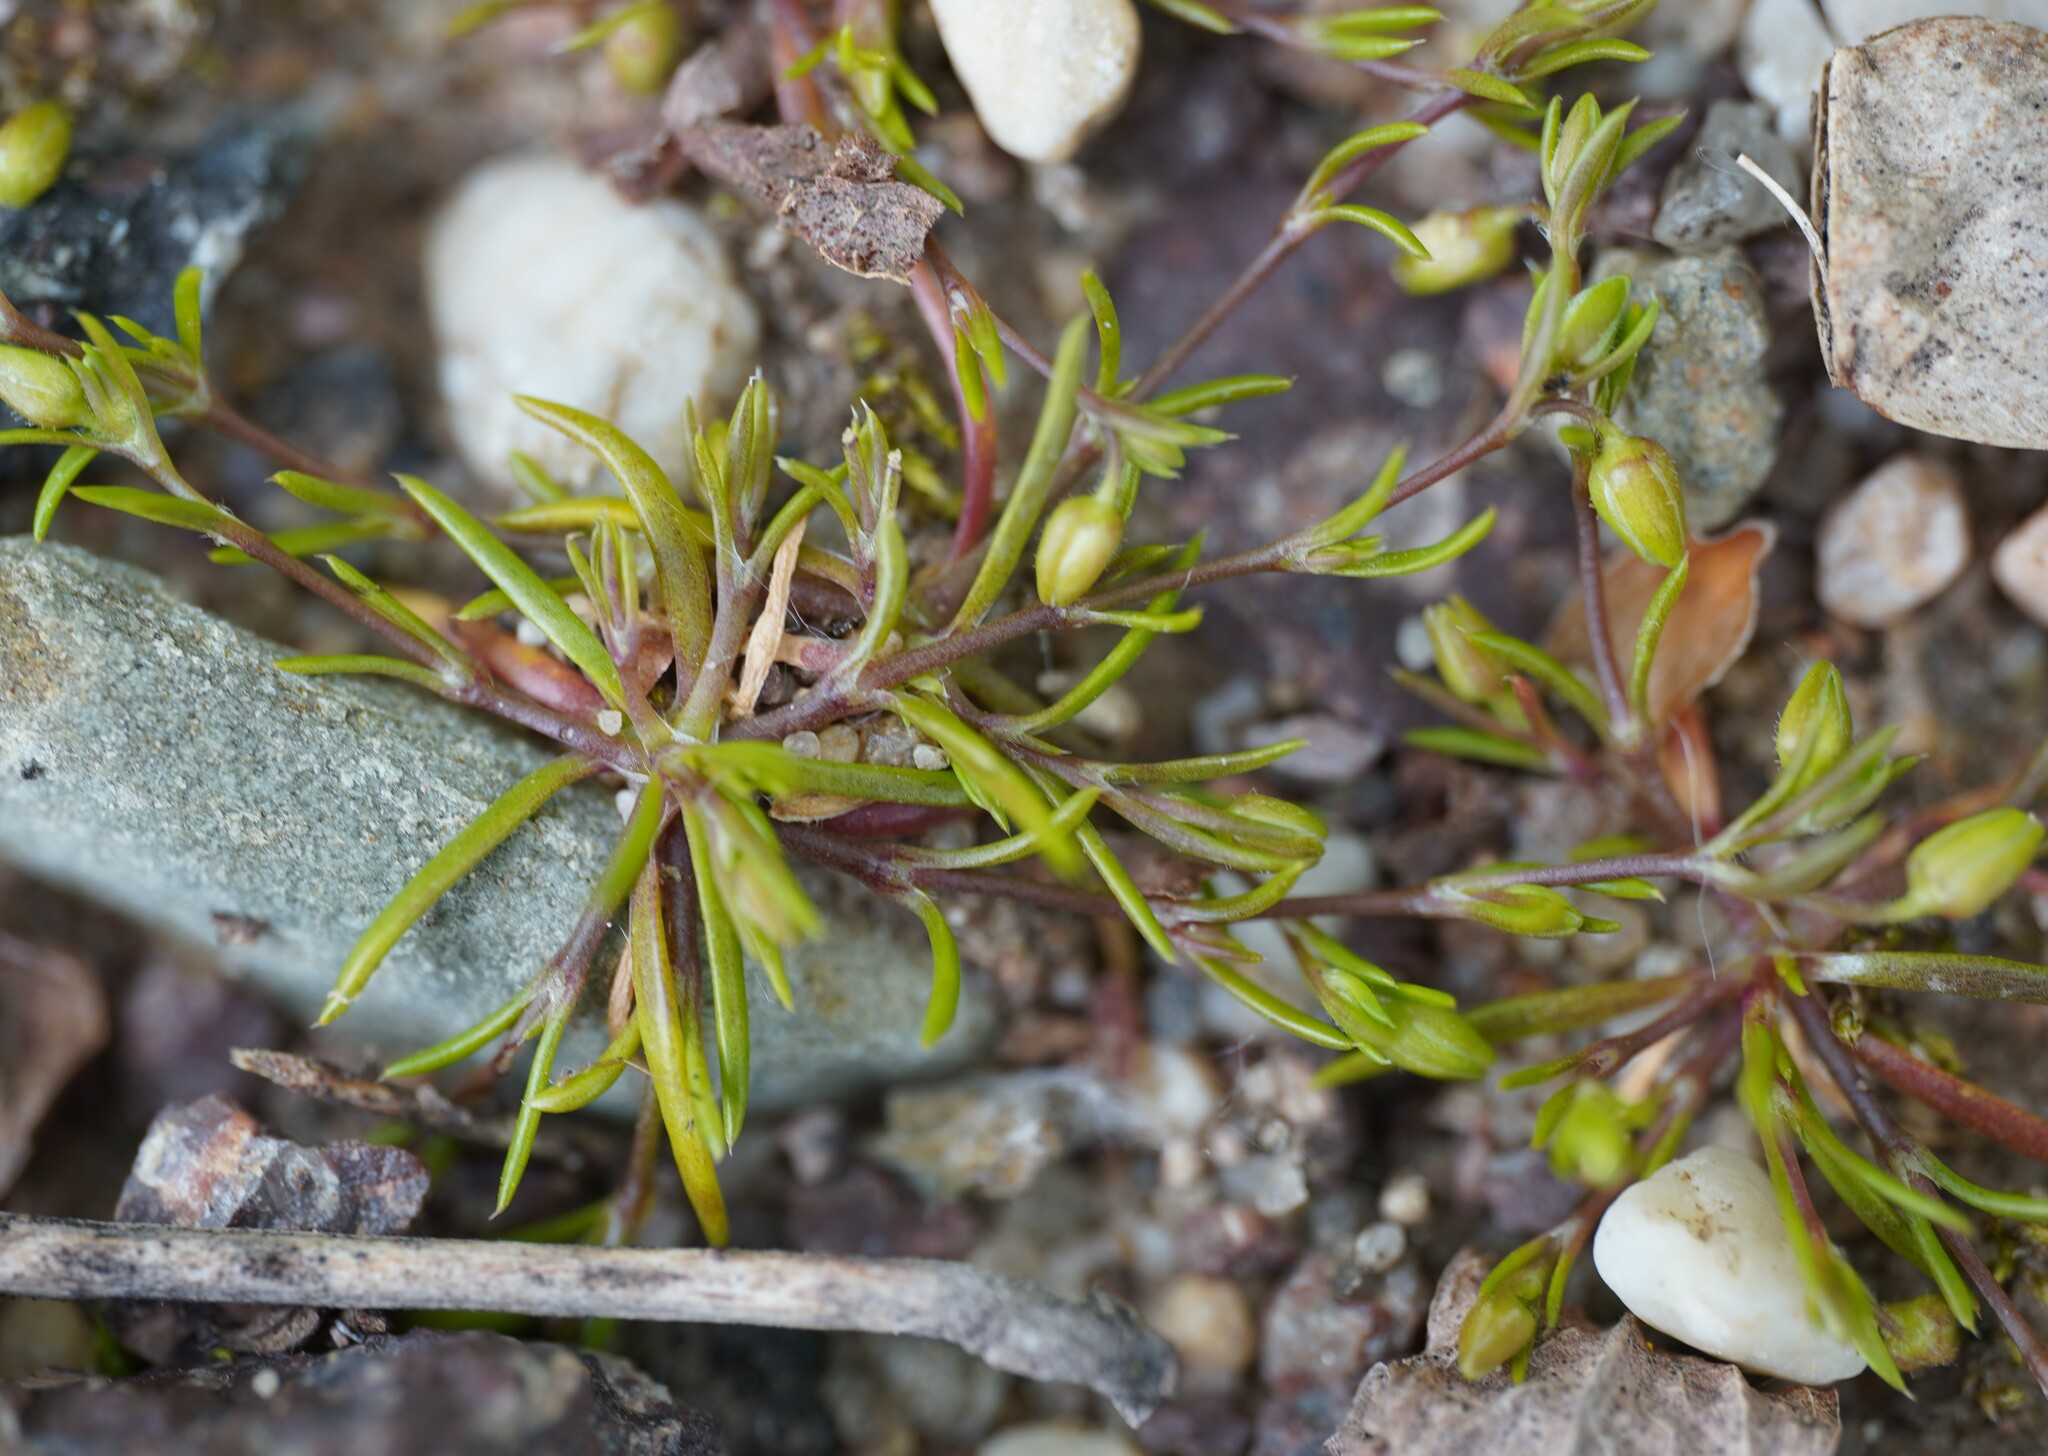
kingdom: Plantae
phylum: Tracheophyta
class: Magnoliopsida
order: Caryophyllales
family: Caryophyllaceae
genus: Sagina
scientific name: Sagina procumbens
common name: Procumbent pearlwort
